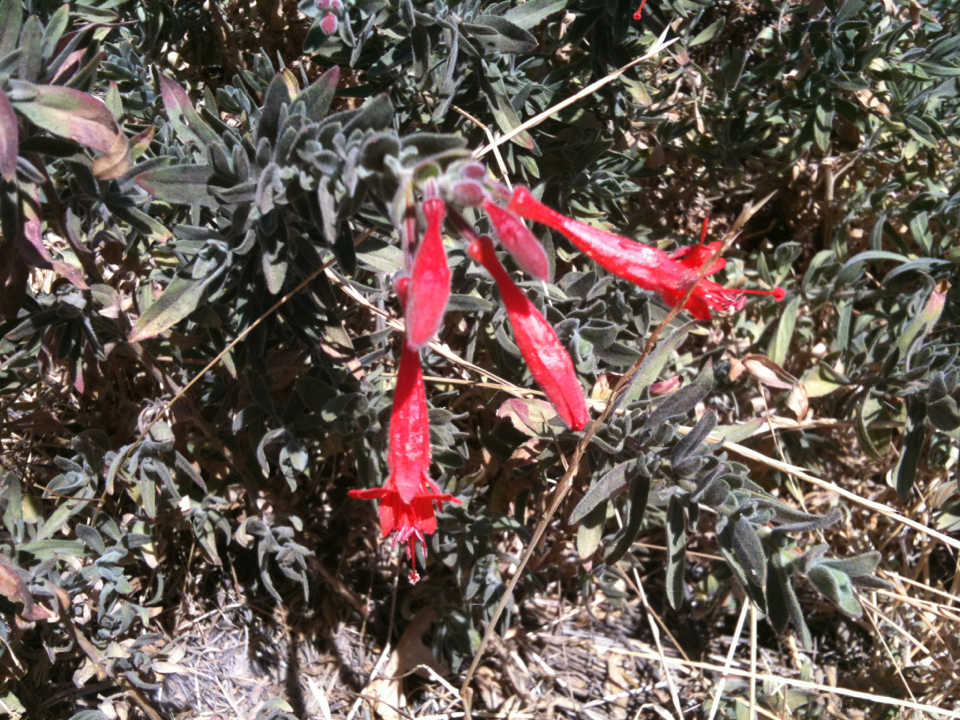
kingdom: Plantae
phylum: Tracheophyta
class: Magnoliopsida
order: Myrtales
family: Onagraceae
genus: Epilobium
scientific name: Epilobium canum
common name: California-fuchsia
